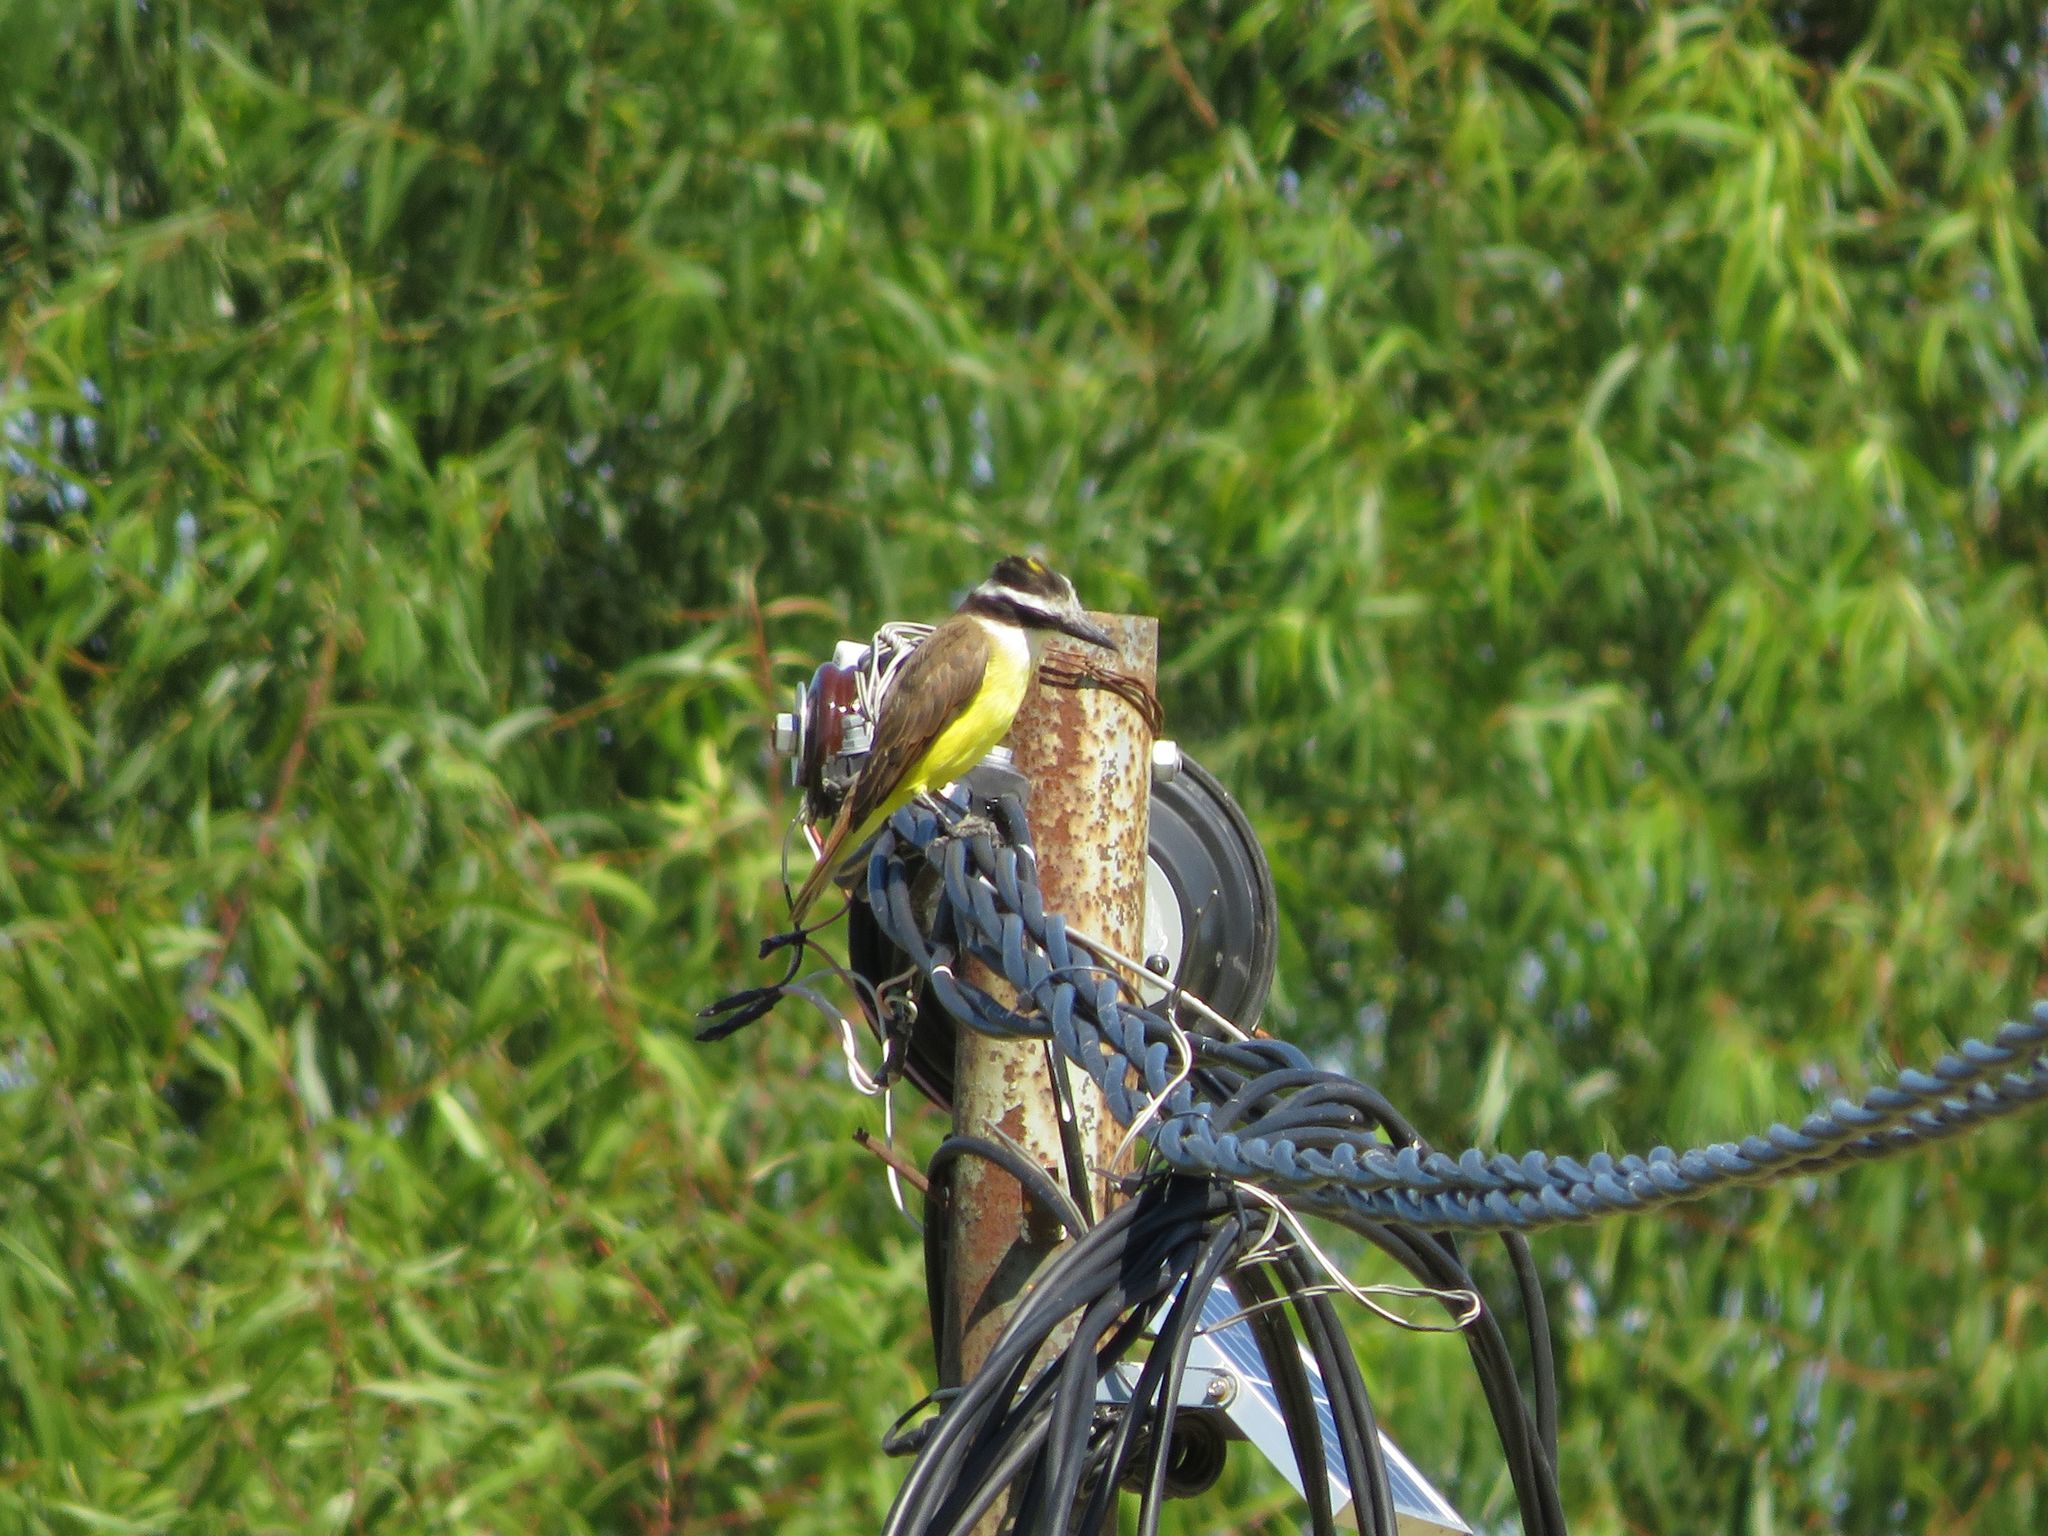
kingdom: Animalia
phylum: Chordata
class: Aves
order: Passeriformes
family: Tyrannidae
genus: Pitangus
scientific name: Pitangus sulphuratus
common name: Great kiskadee
